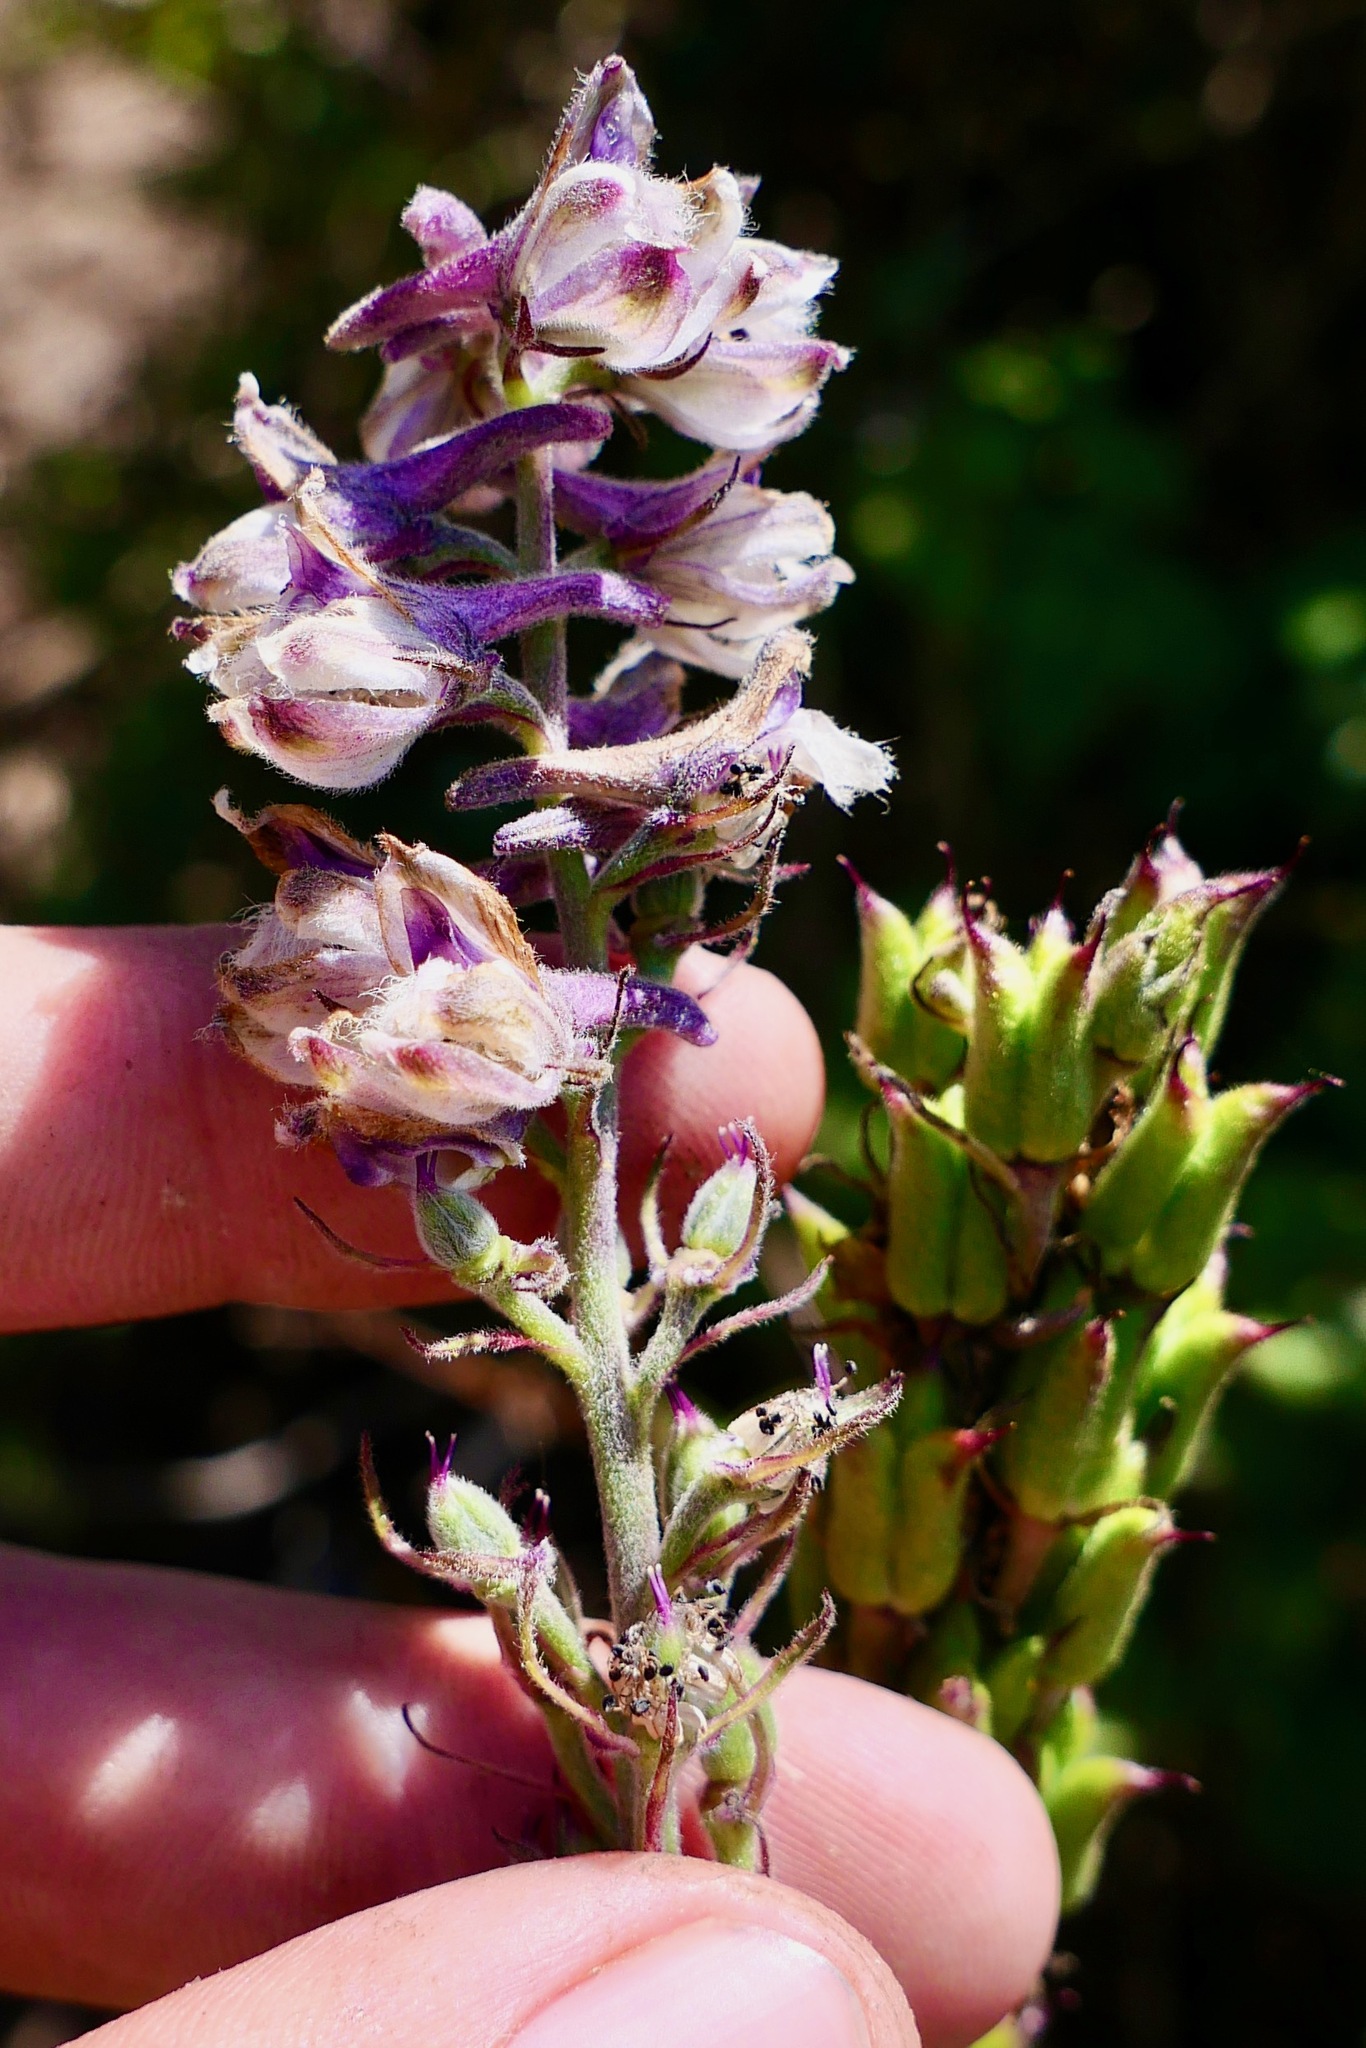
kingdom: Plantae
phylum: Tracheophyta
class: Magnoliopsida
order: Ranunculales
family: Ranunculaceae
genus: Delphinium
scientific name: Delphinium californicum
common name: California larkspur
